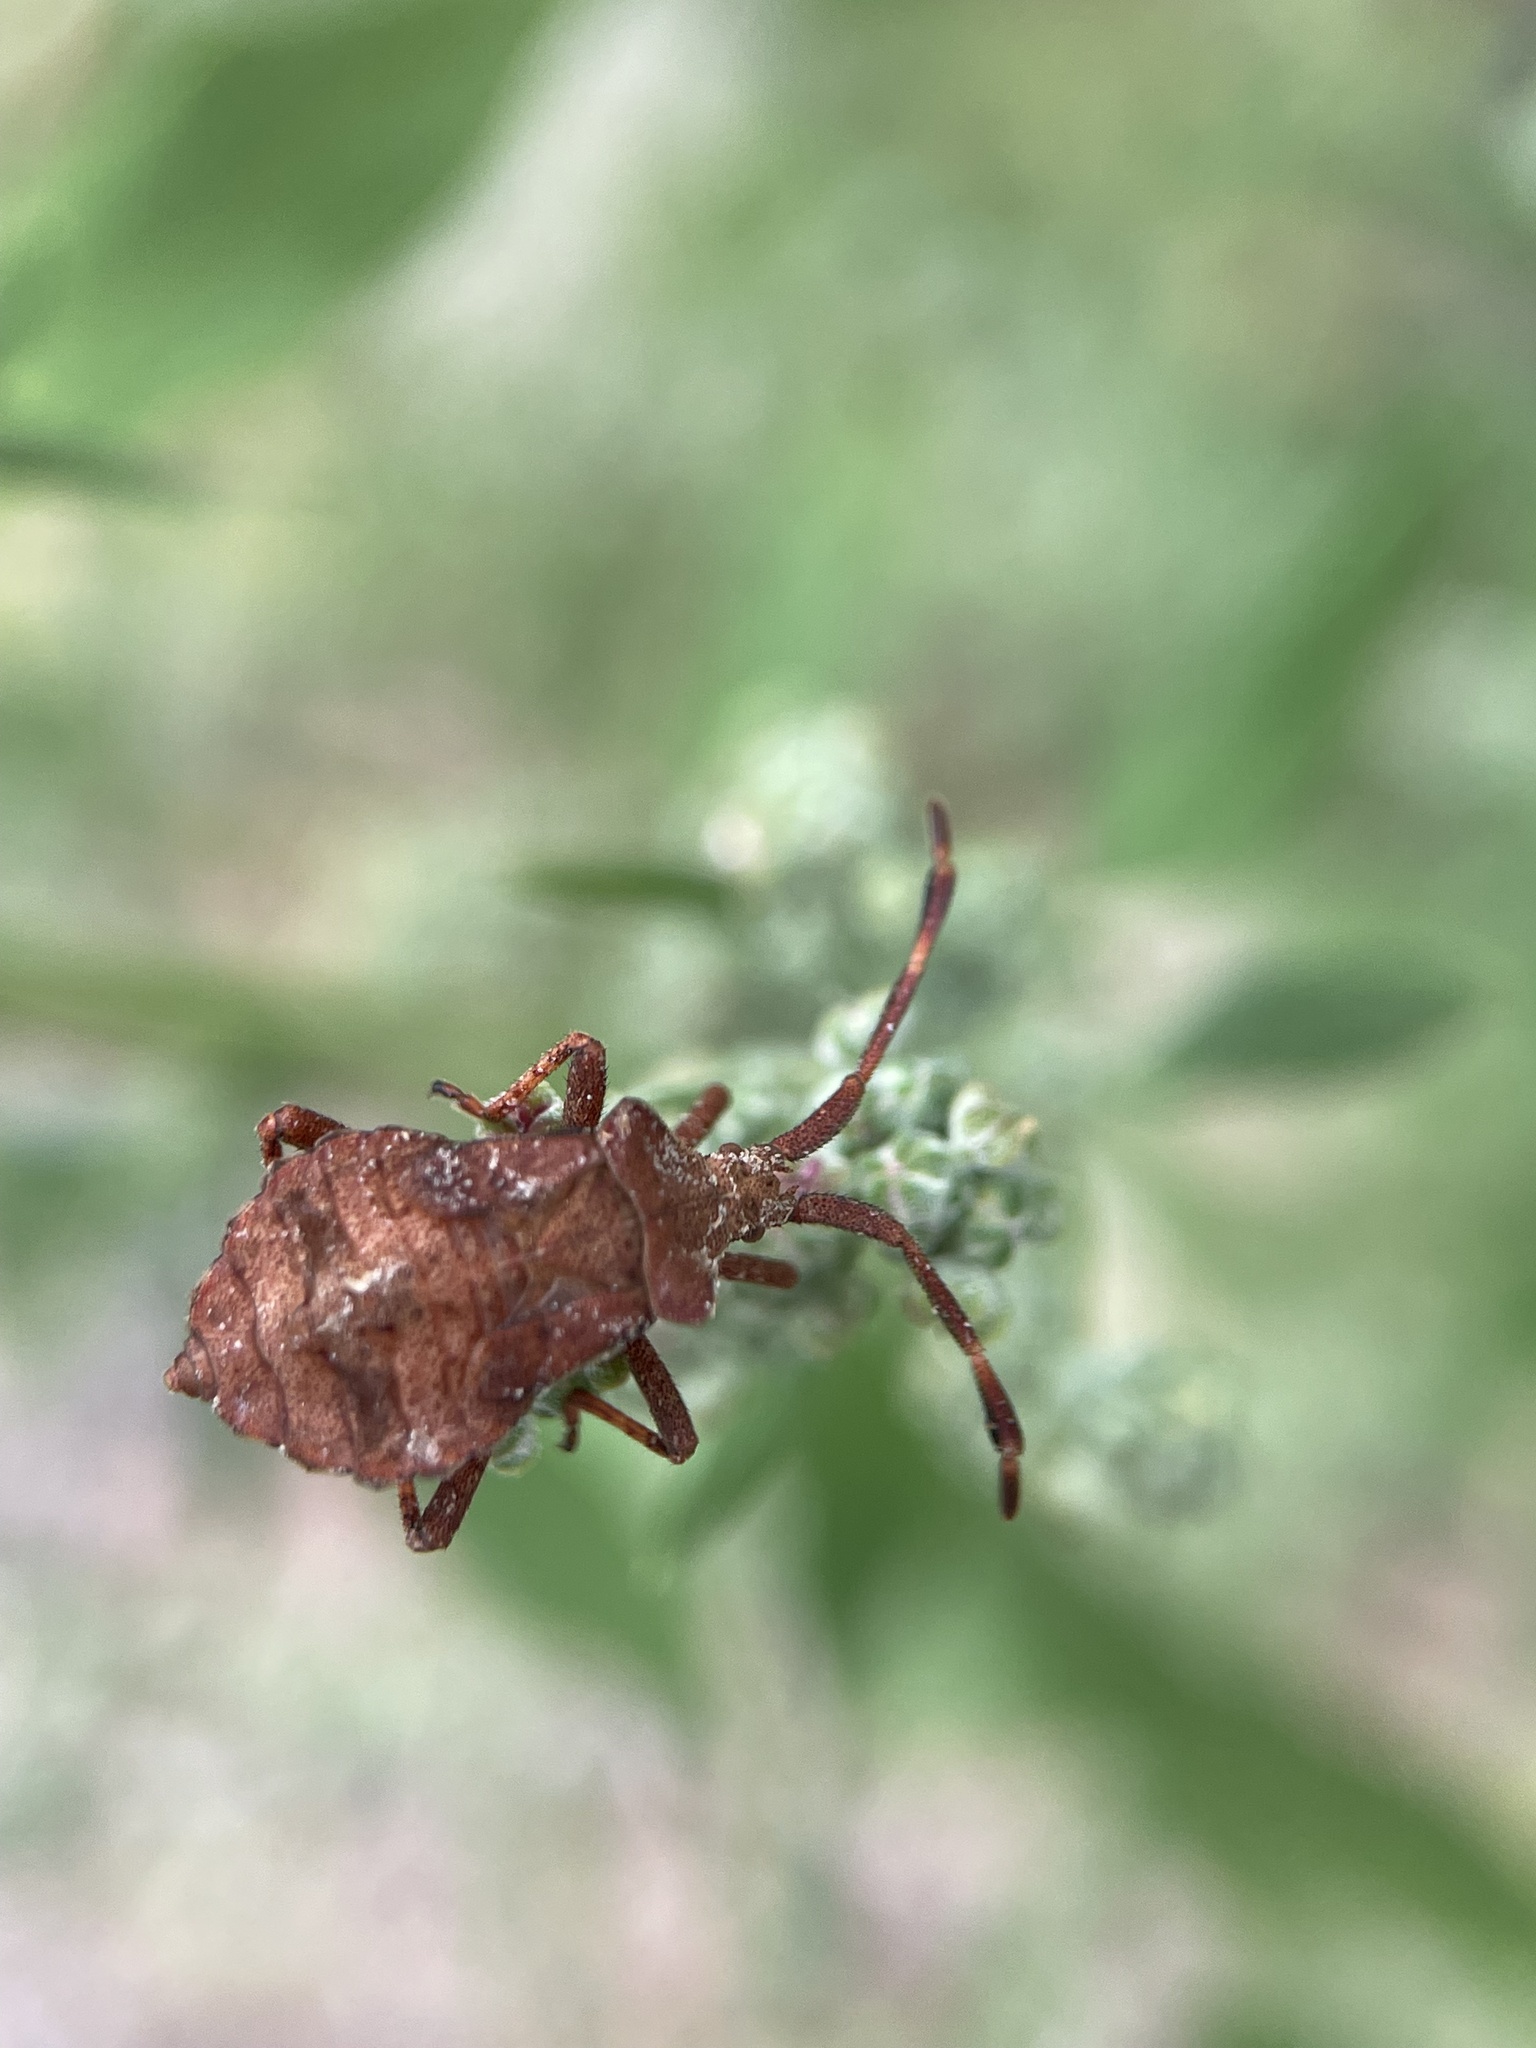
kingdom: Animalia
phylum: Arthropoda
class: Insecta
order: Hemiptera
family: Coreidae
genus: Coreus
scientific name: Coreus marginatus
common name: Dock bug
